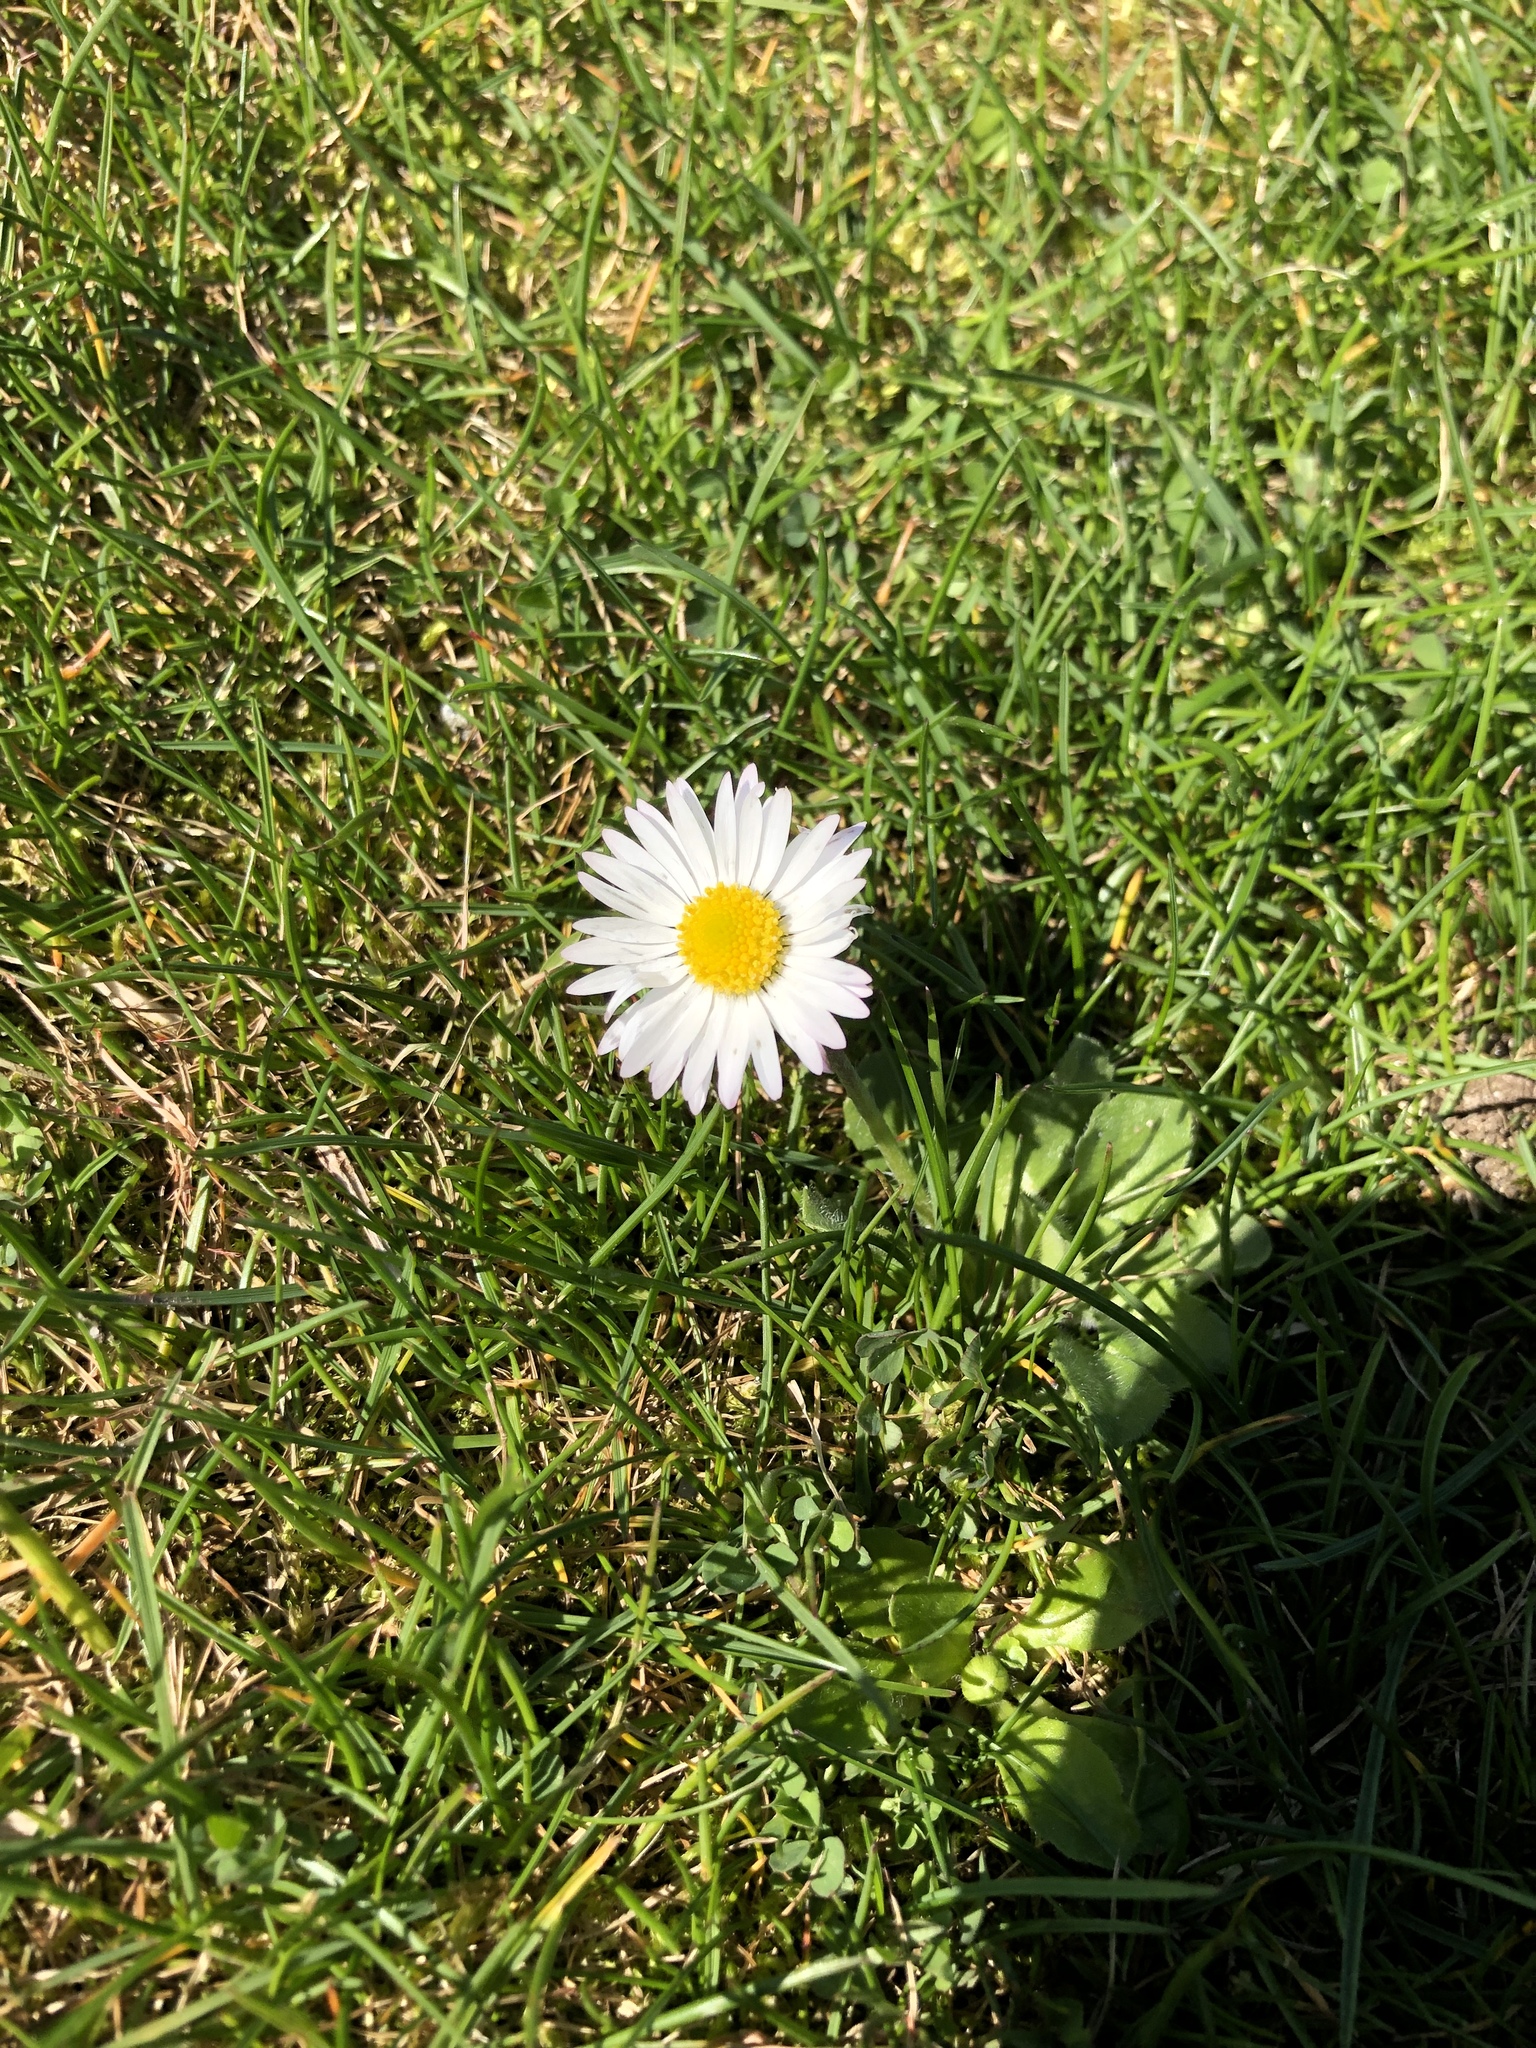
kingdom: Plantae
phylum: Tracheophyta
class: Magnoliopsida
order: Asterales
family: Asteraceae
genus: Bellis
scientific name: Bellis perennis
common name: Lawndaisy
